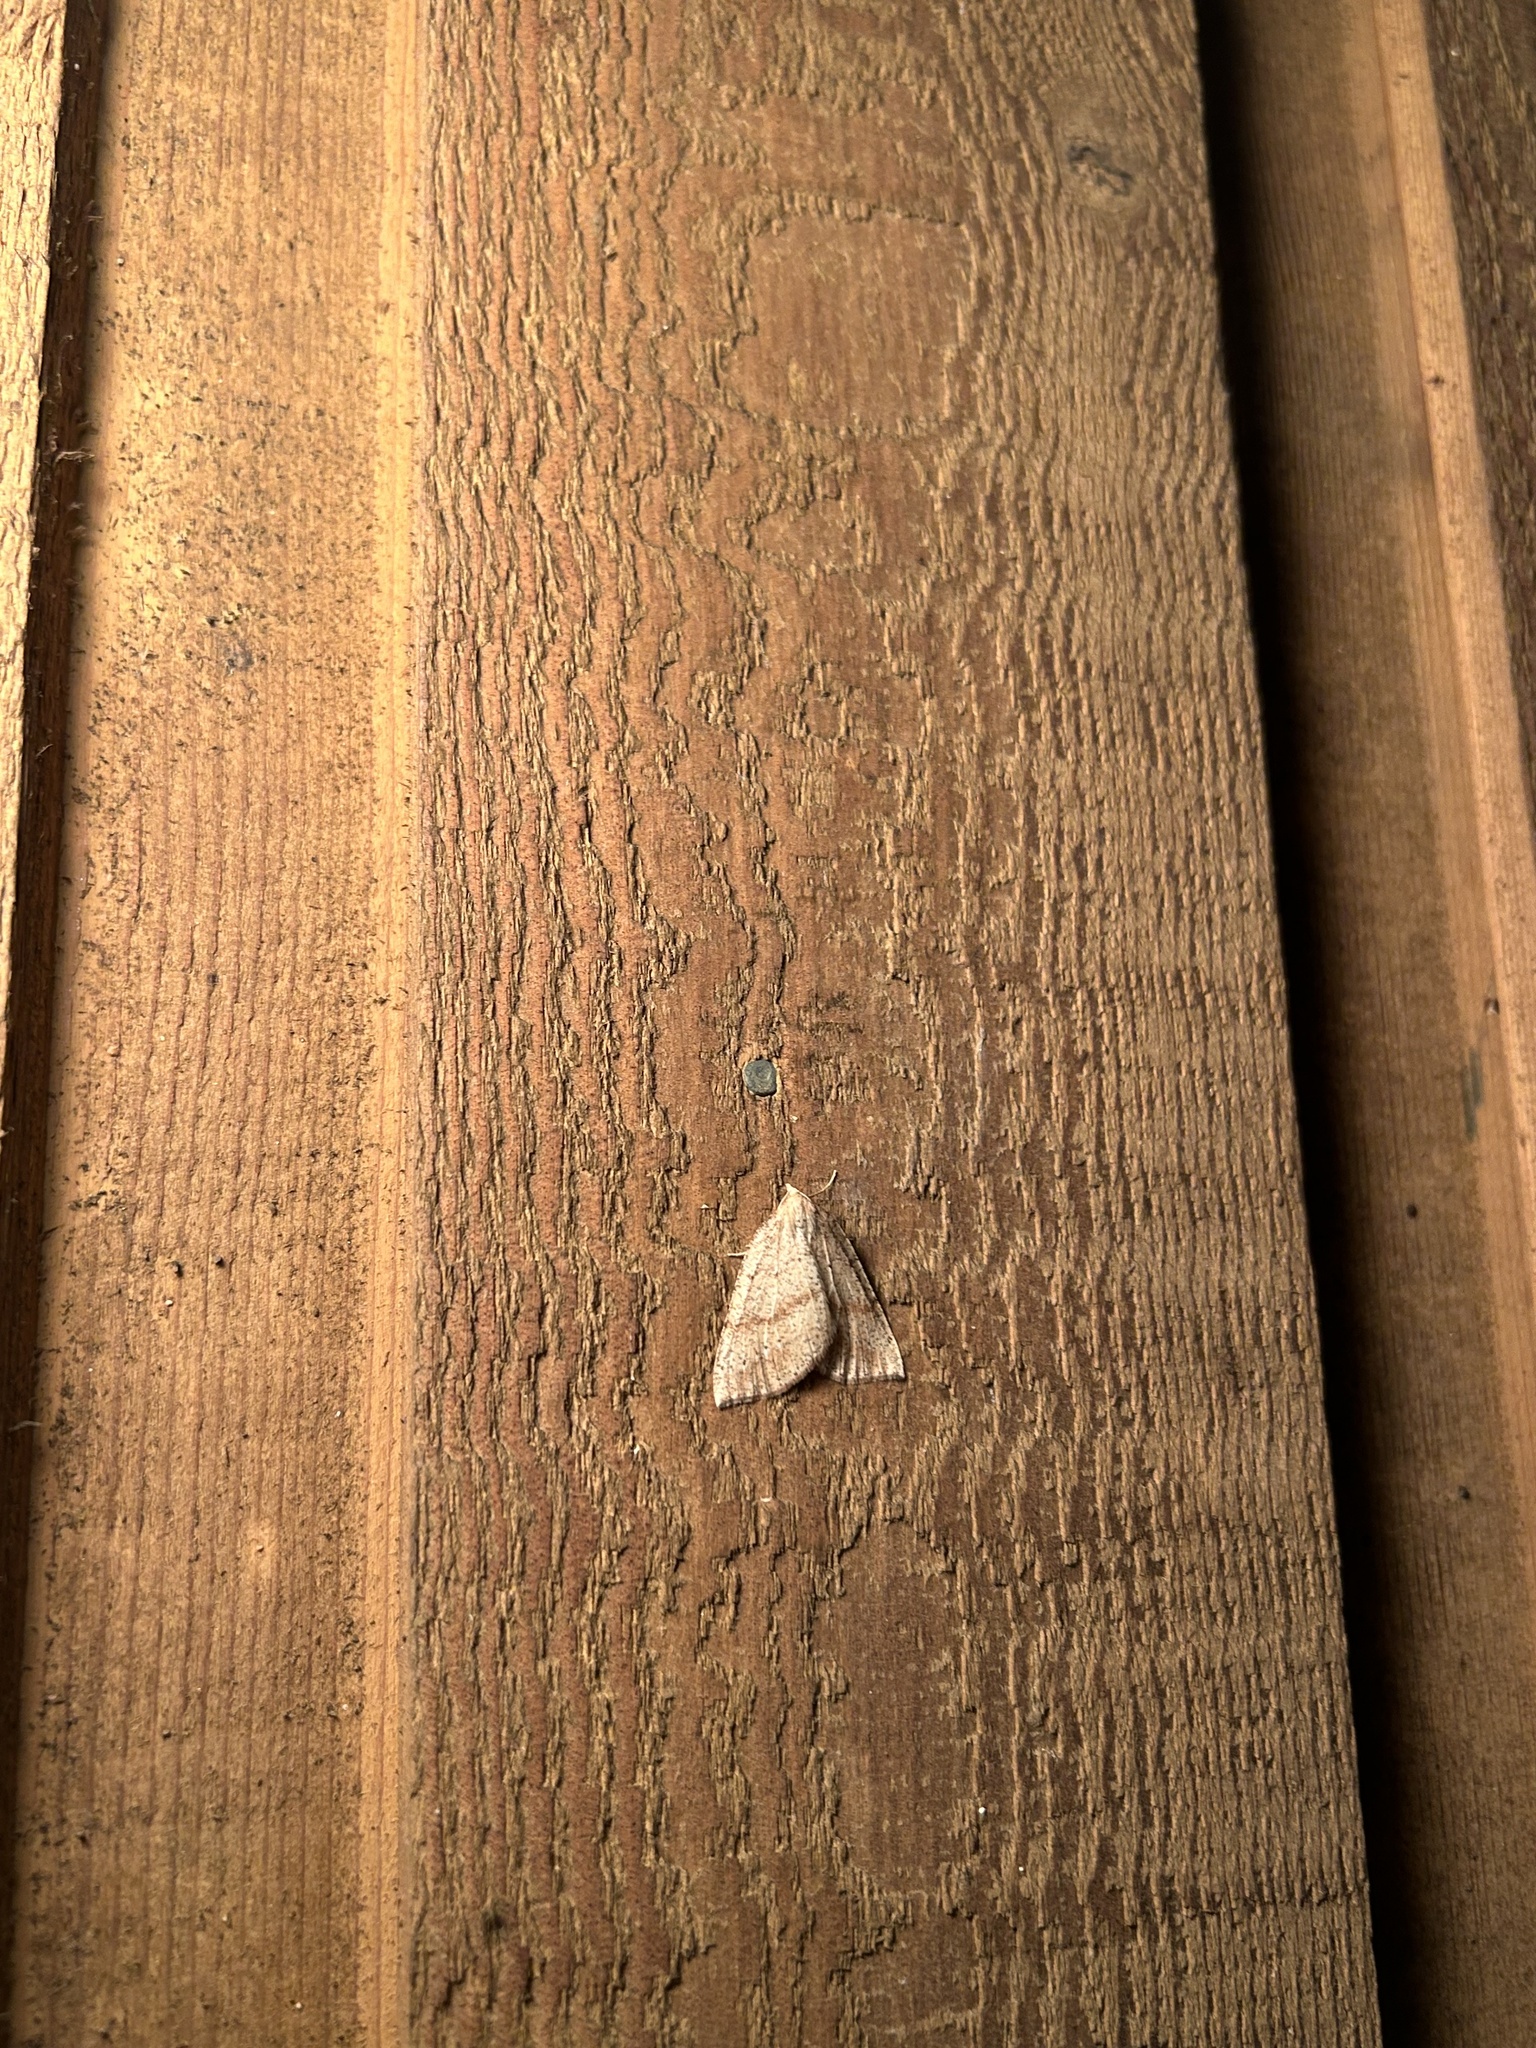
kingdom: Animalia
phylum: Arthropoda
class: Insecta
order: Lepidoptera
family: Geometridae
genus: Thallophaga
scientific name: Thallophaga hyperborea
